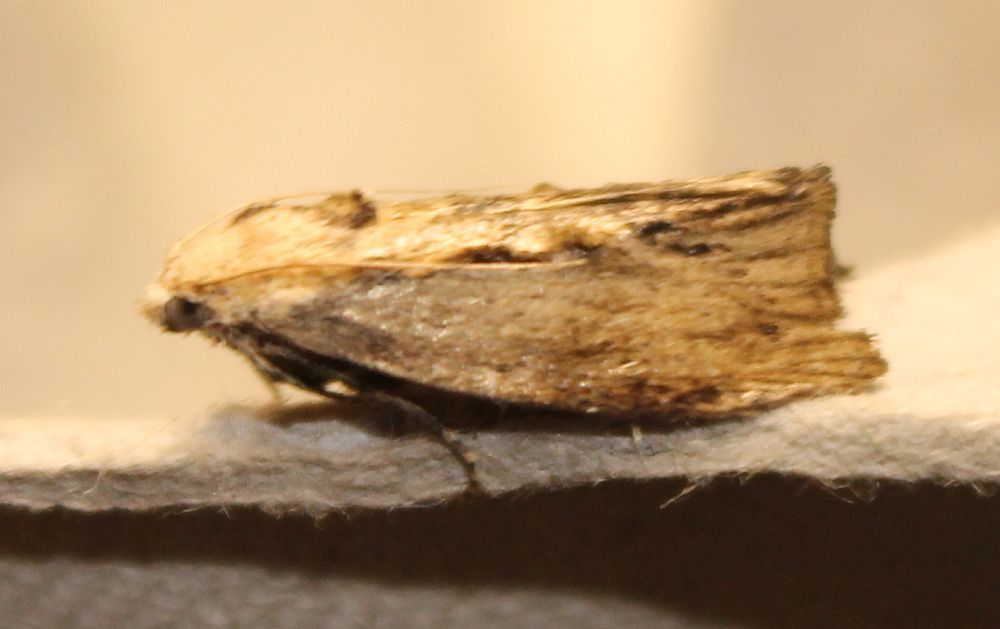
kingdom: Animalia
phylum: Arthropoda
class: Insecta
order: Lepidoptera
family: Pyralidae
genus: Galleria
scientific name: Galleria mellonella
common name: Greater wax moth
